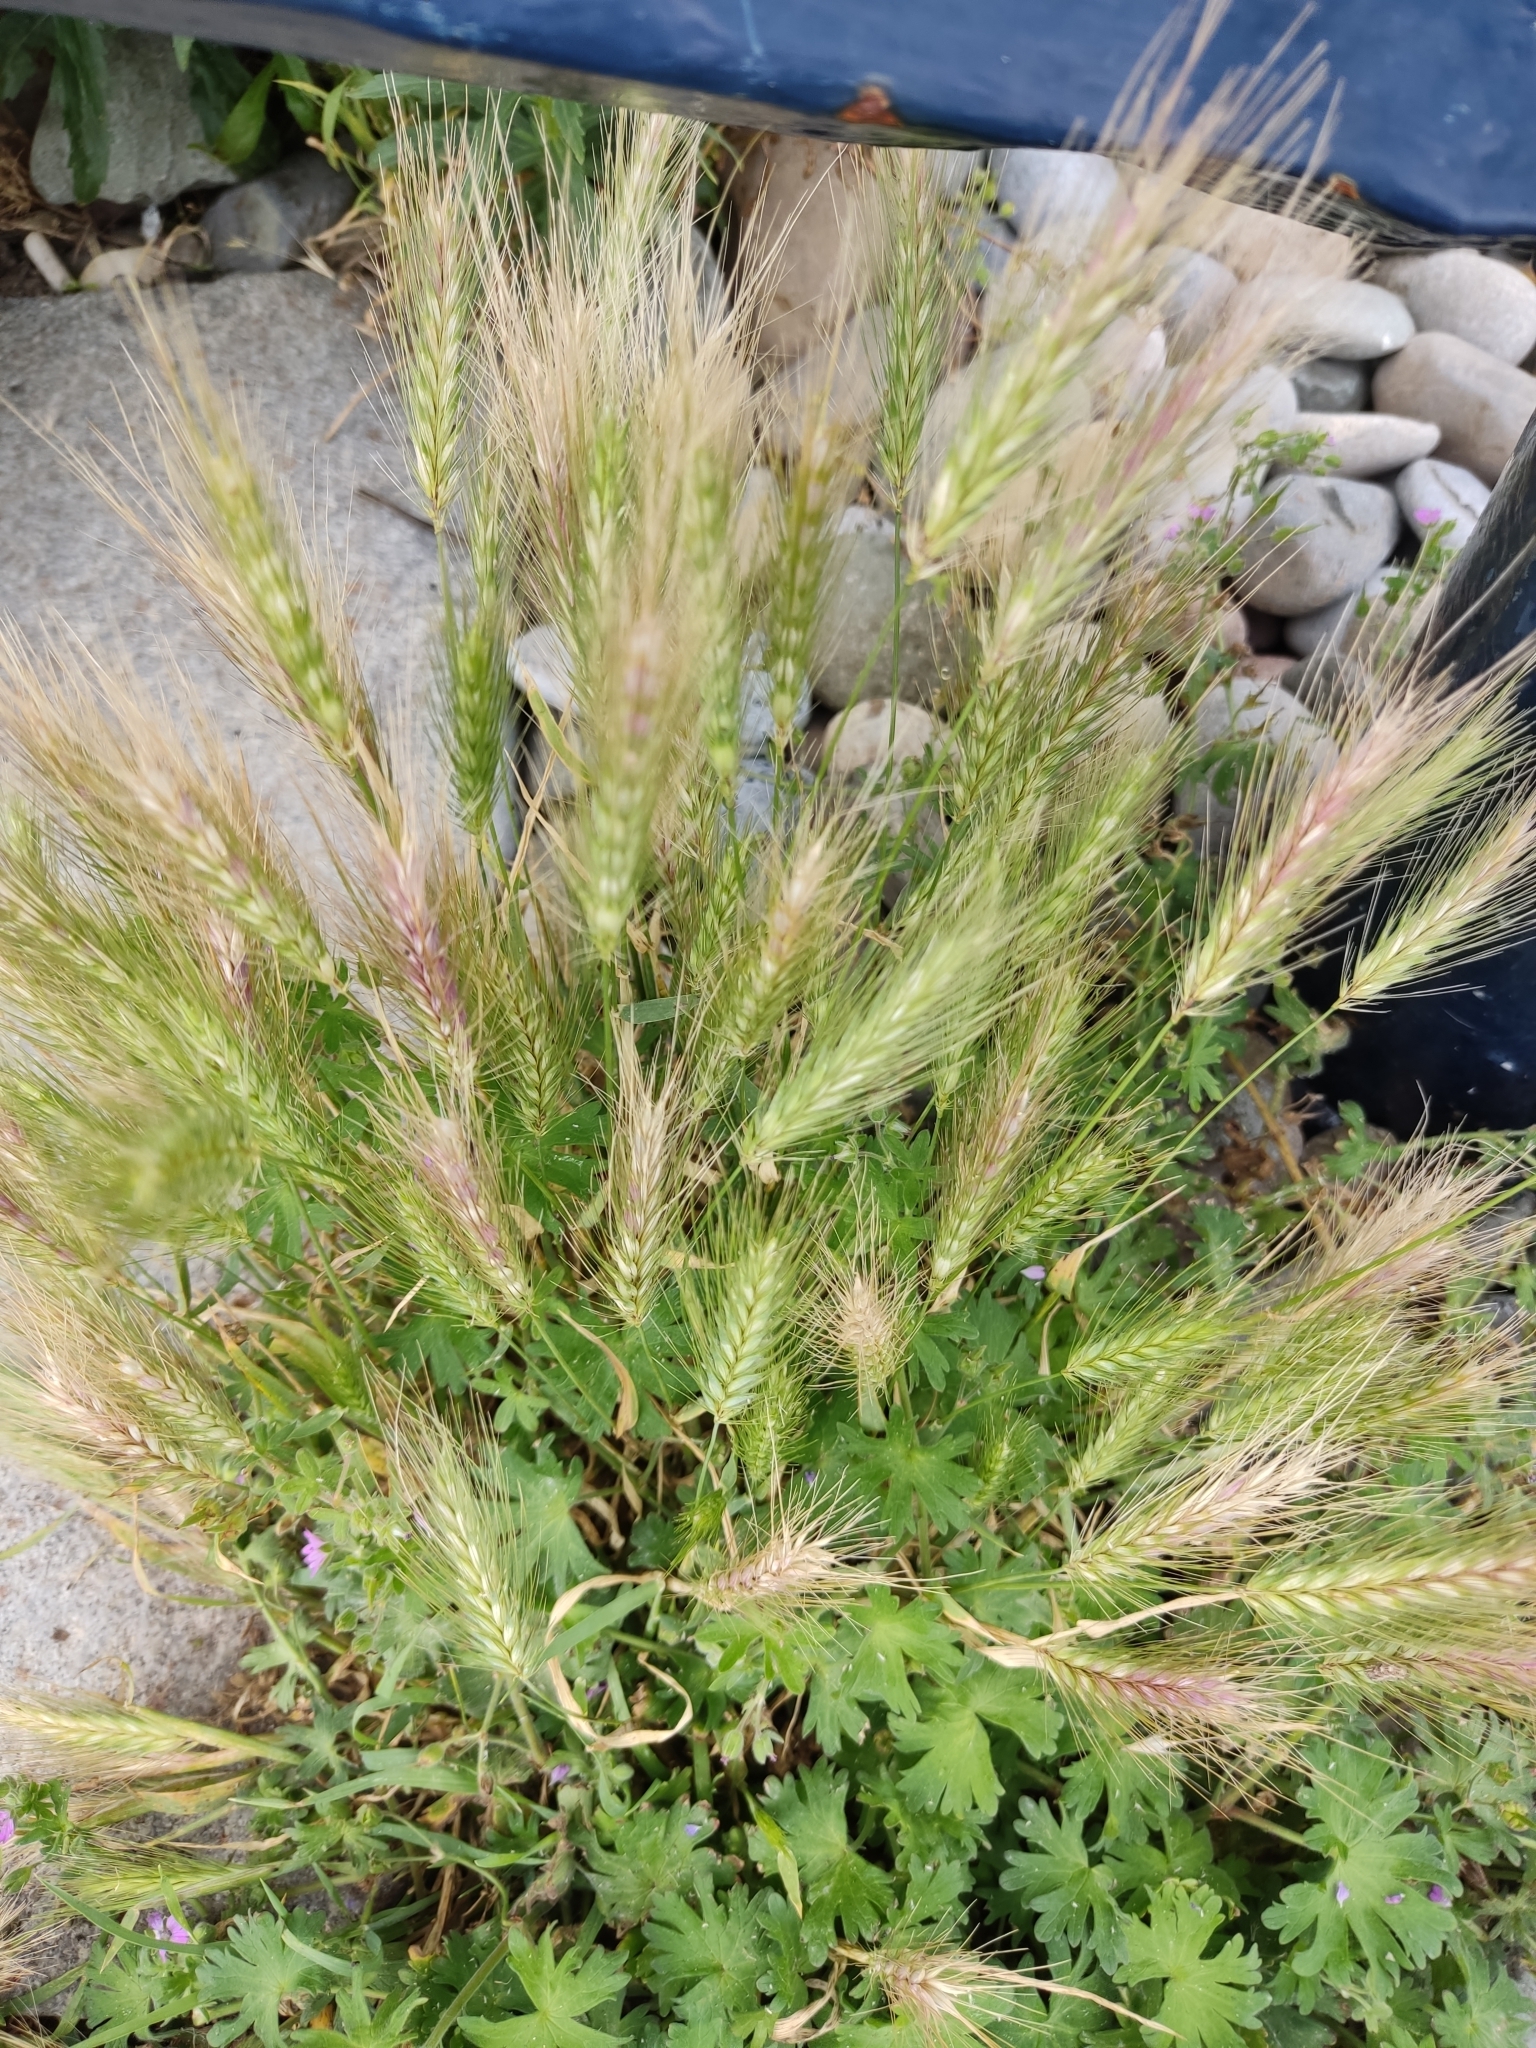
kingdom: Plantae
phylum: Tracheophyta
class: Liliopsida
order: Poales
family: Poaceae
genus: Hordeum
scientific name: Hordeum murinum
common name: Wall barley
